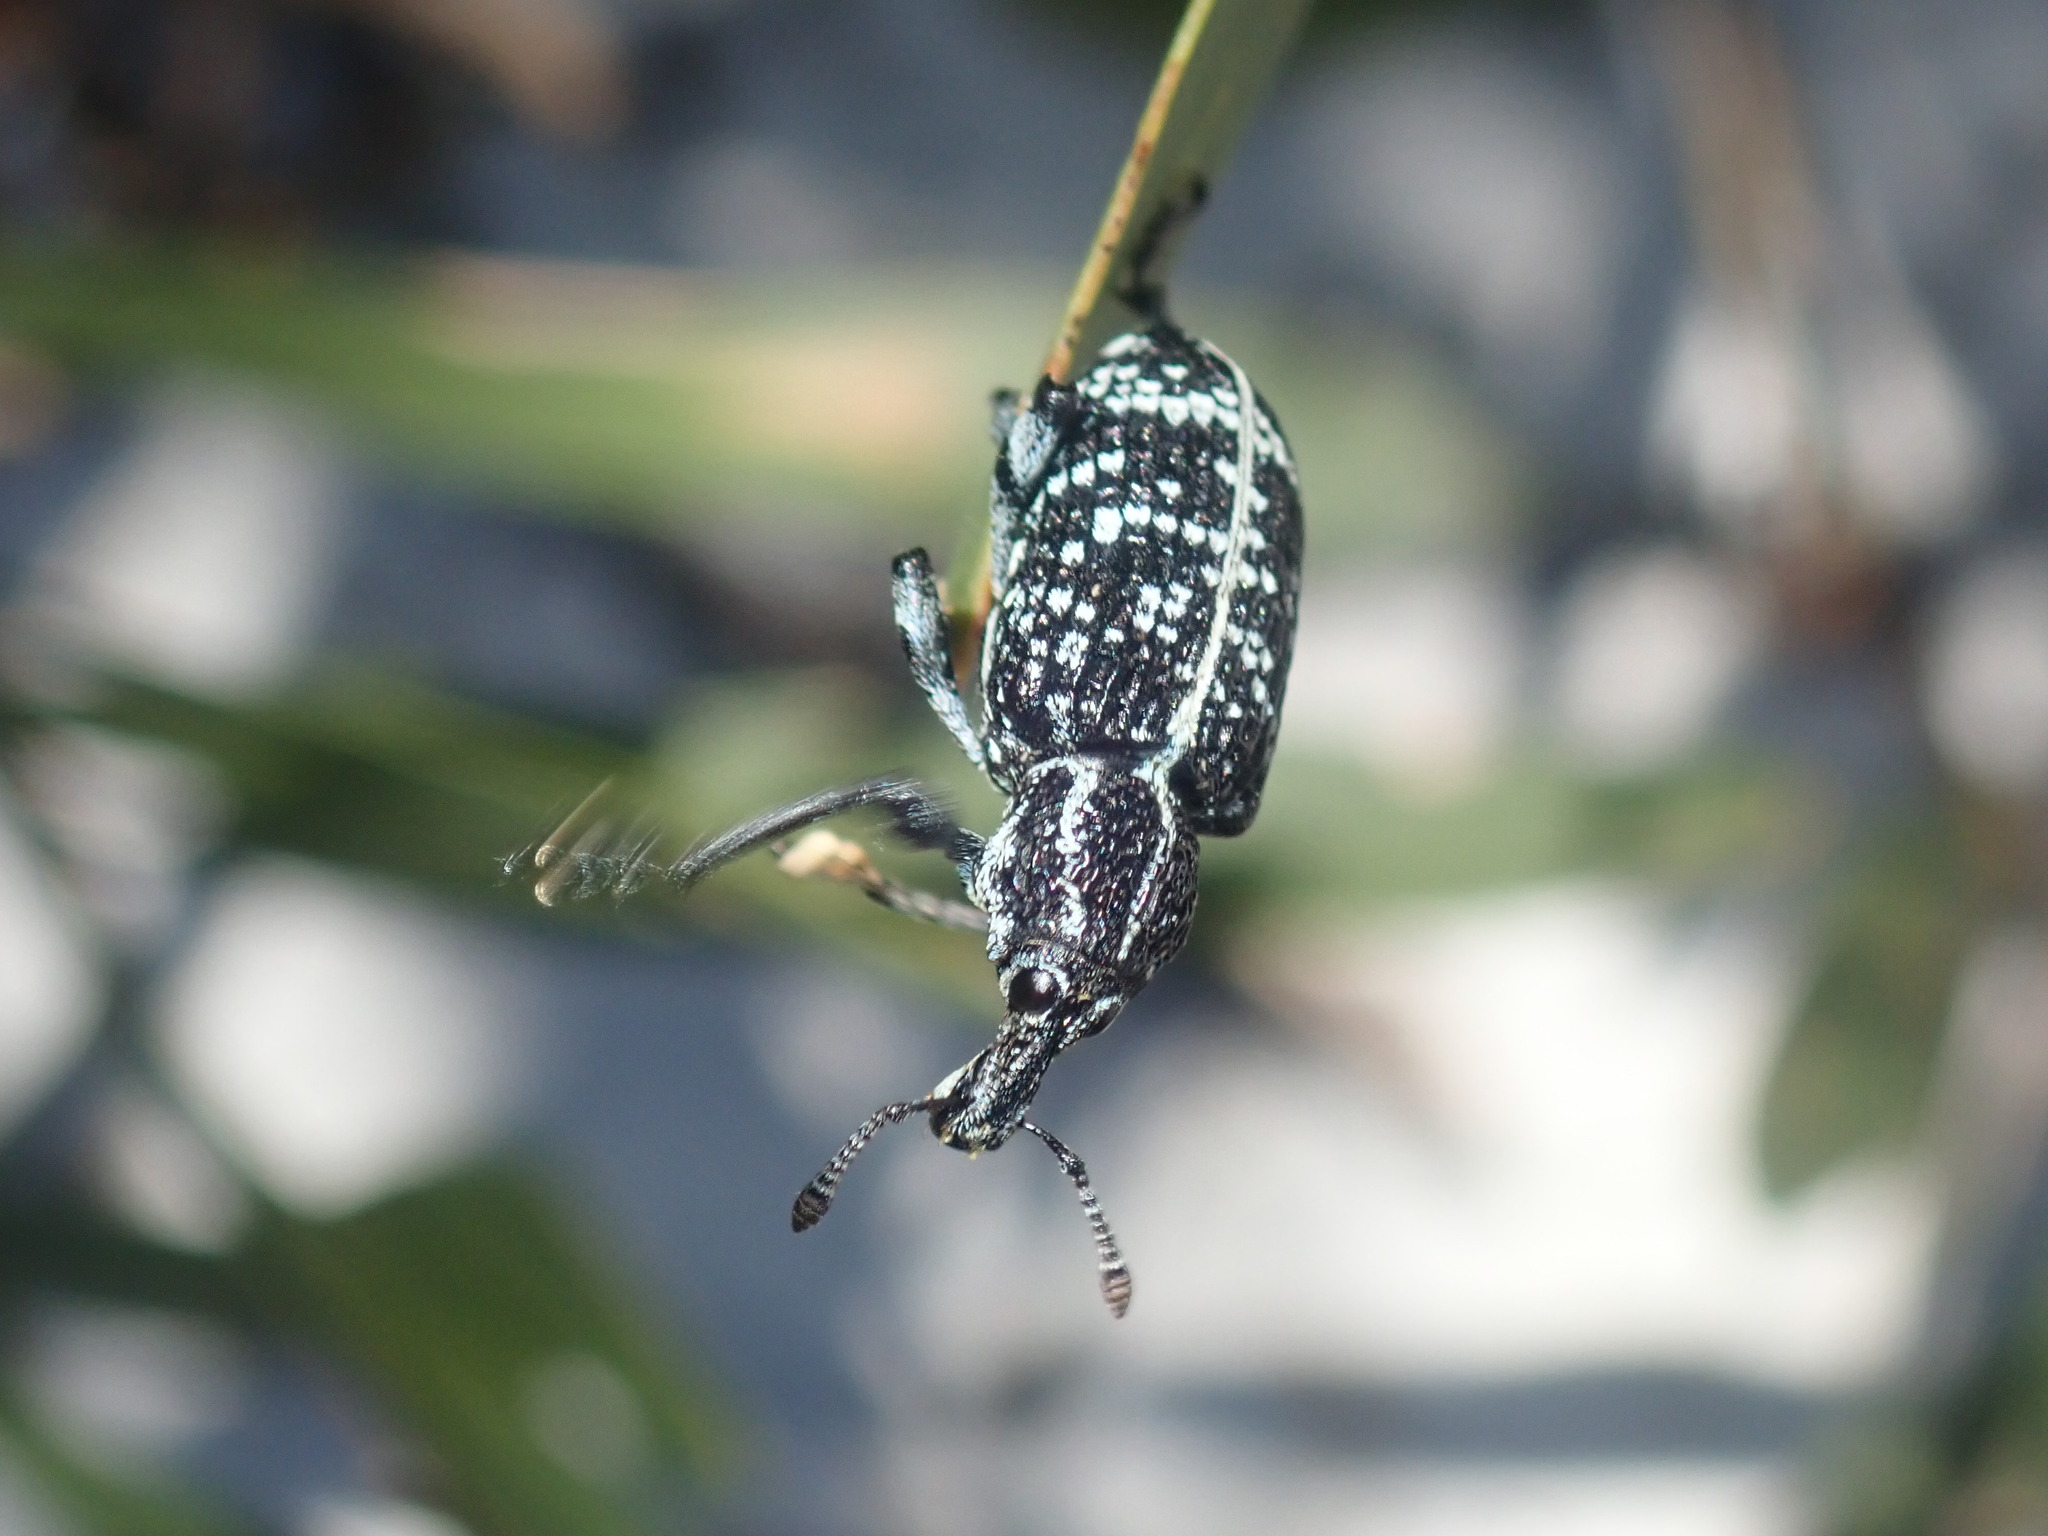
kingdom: Animalia
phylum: Arthropoda
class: Insecta
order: Coleoptera
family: Curculionidae
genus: Chrysolopus
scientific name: Chrysolopus spectabilis
